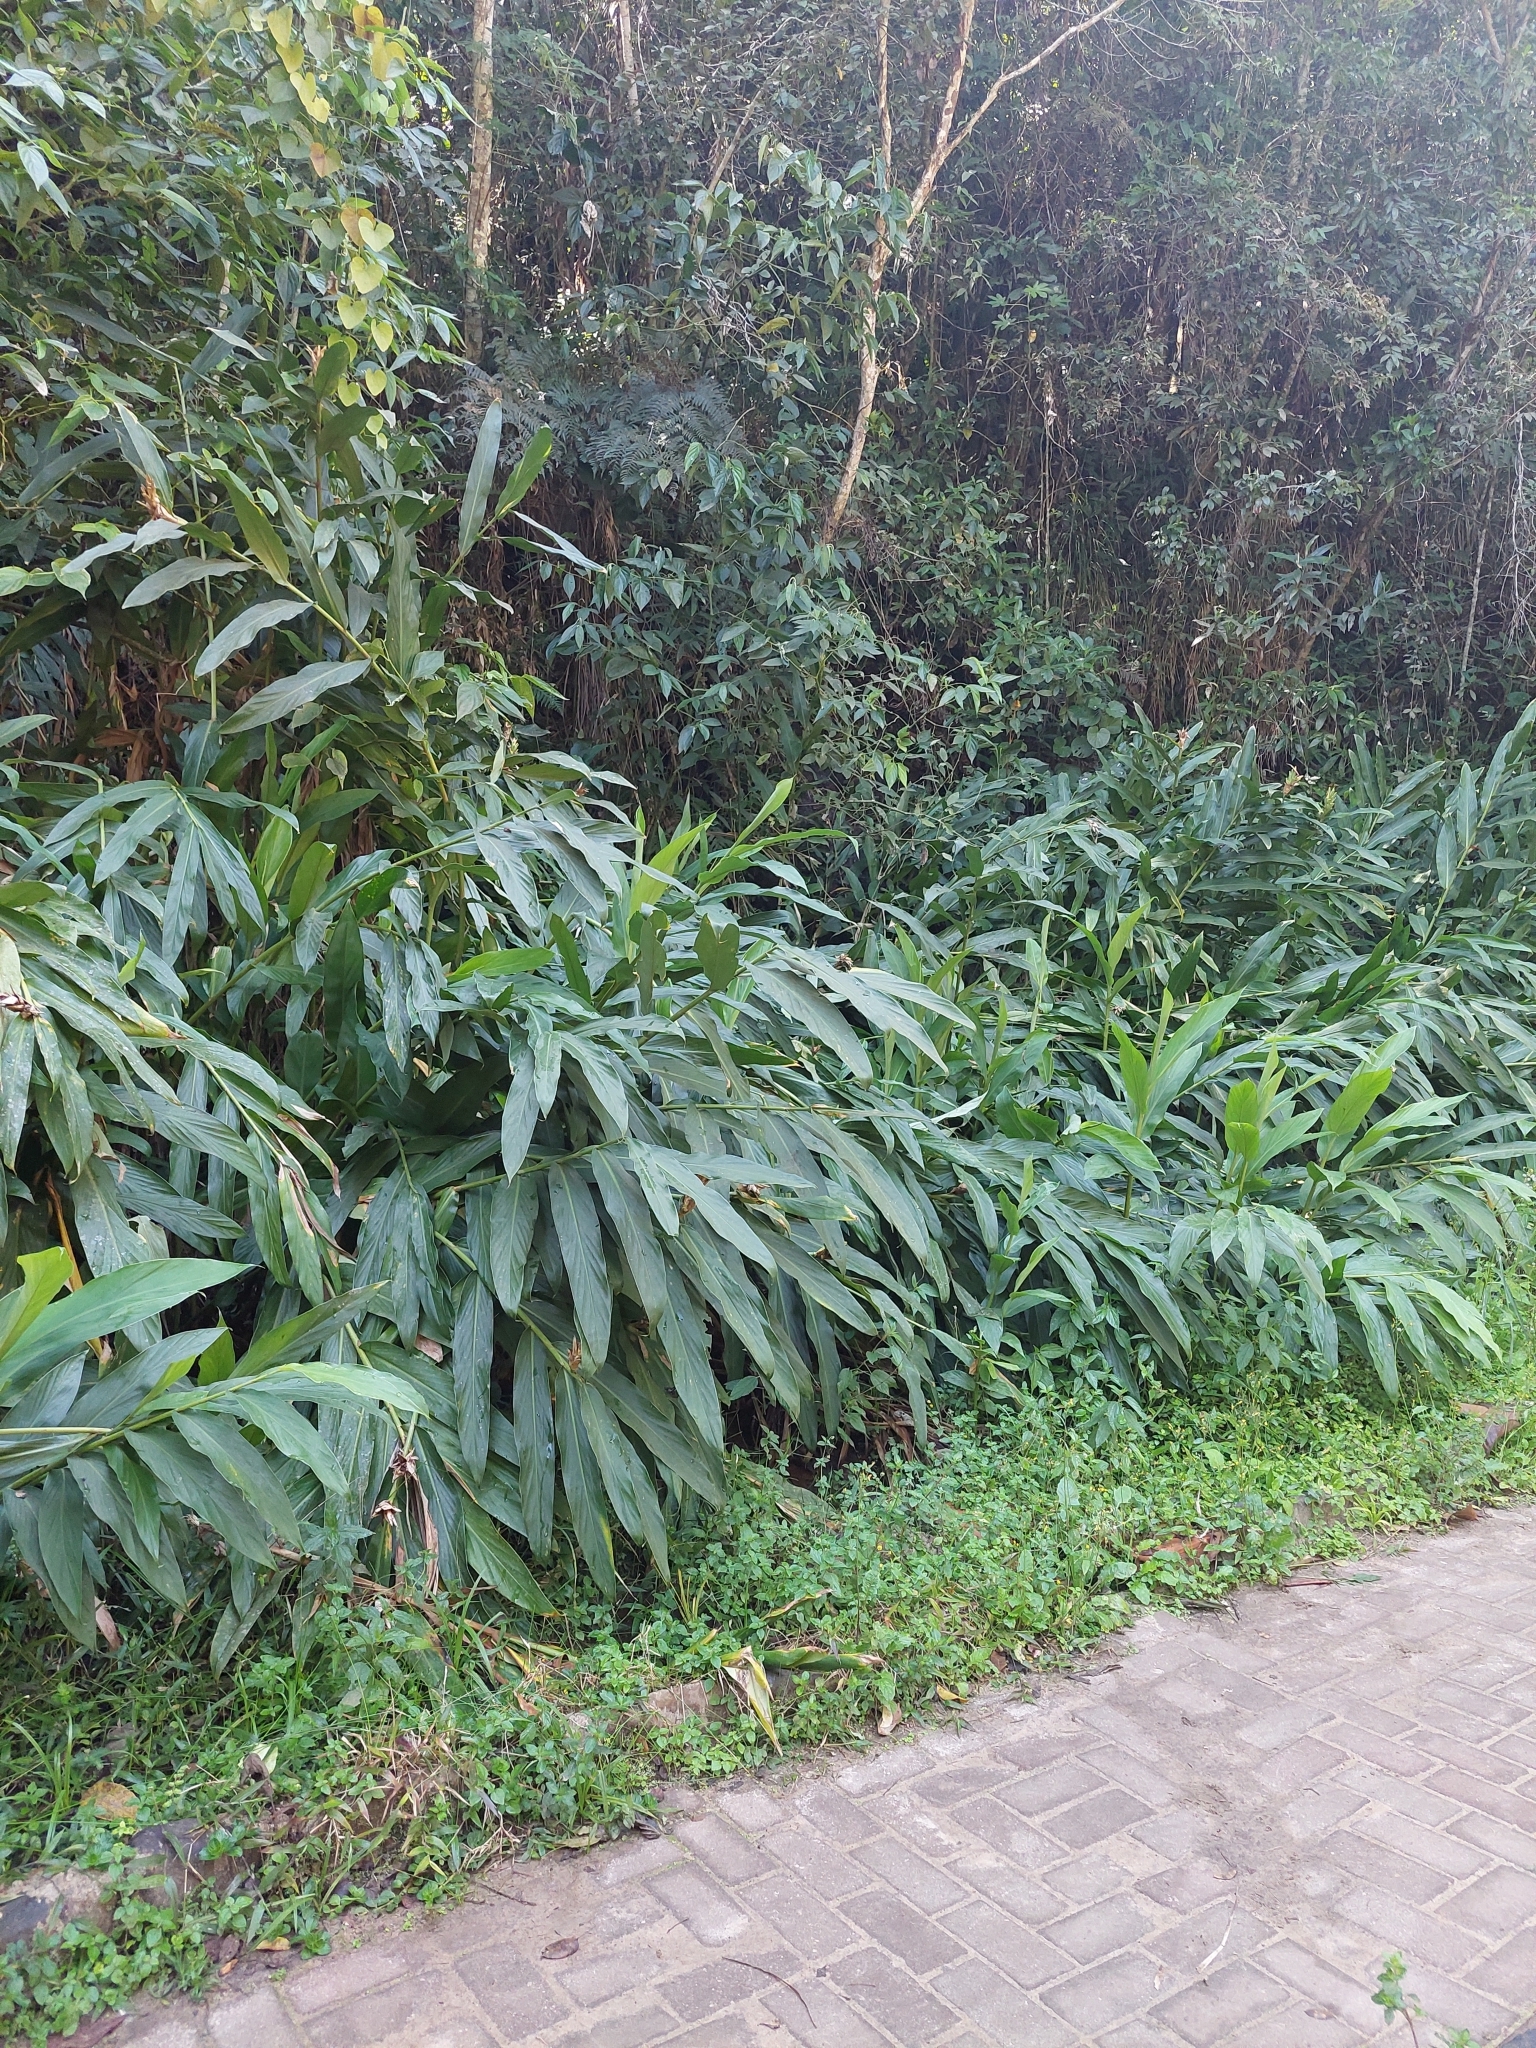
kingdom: Plantae
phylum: Tracheophyta
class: Liliopsida
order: Zingiberales
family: Zingiberaceae
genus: Hedychium
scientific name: Hedychium coronarium
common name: White garland-lily
